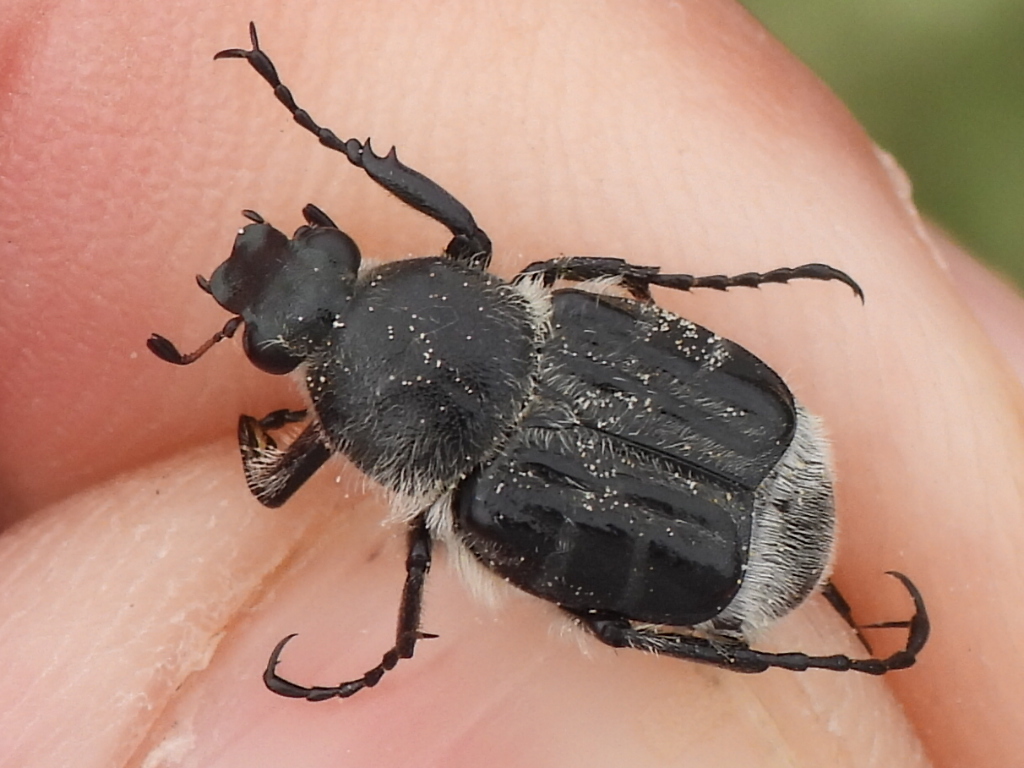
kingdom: Animalia
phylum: Arthropoda
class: Insecta
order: Coleoptera
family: Scarabaeidae
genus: Trichiotinus
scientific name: Trichiotinus texanus
